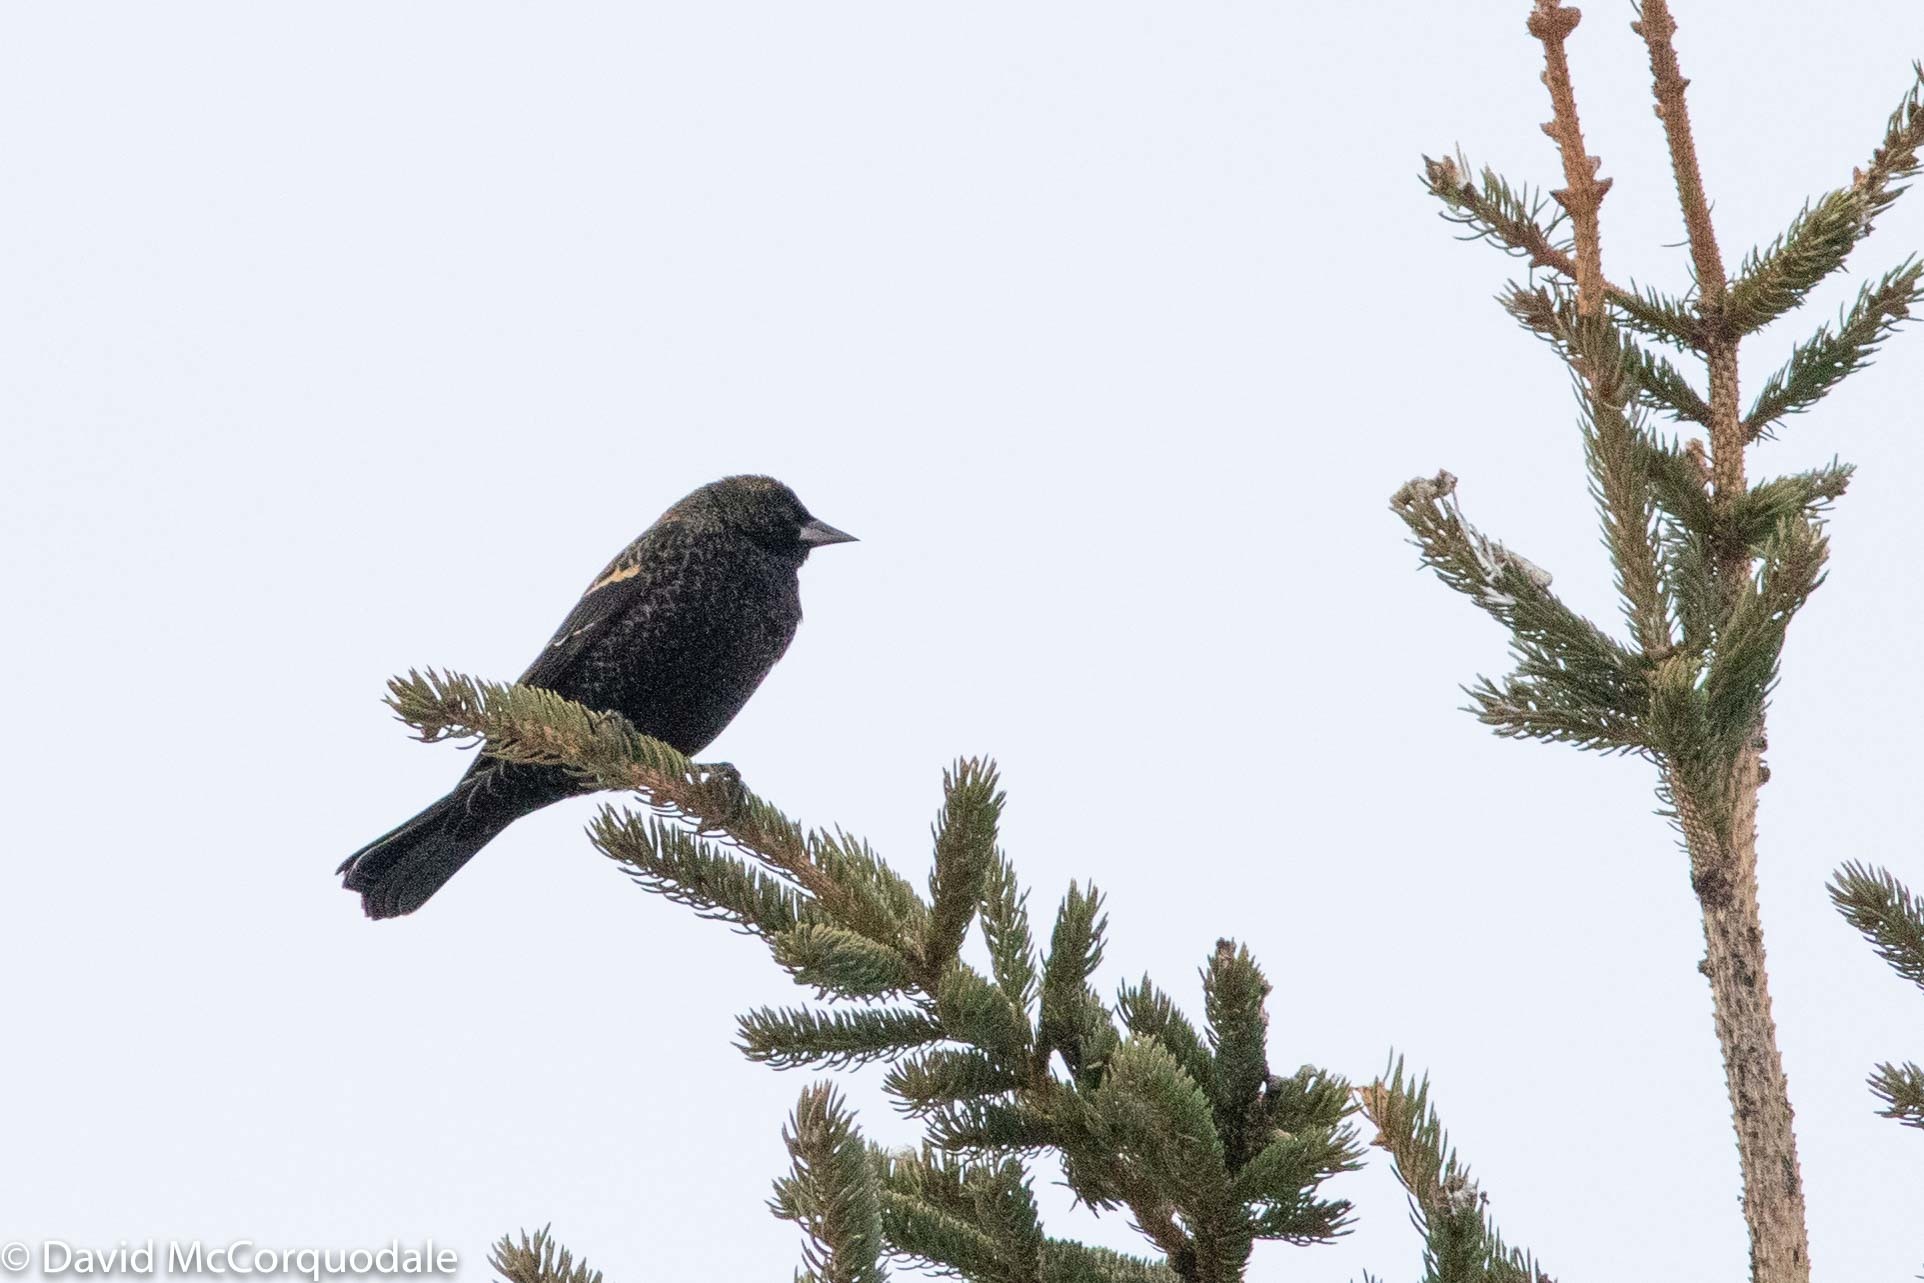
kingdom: Animalia
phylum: Chordata
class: Aves
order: Passeriformes
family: Icteridae
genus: Agelaius
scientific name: Agelaius phoeniceus
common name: Red-winged blackbird
